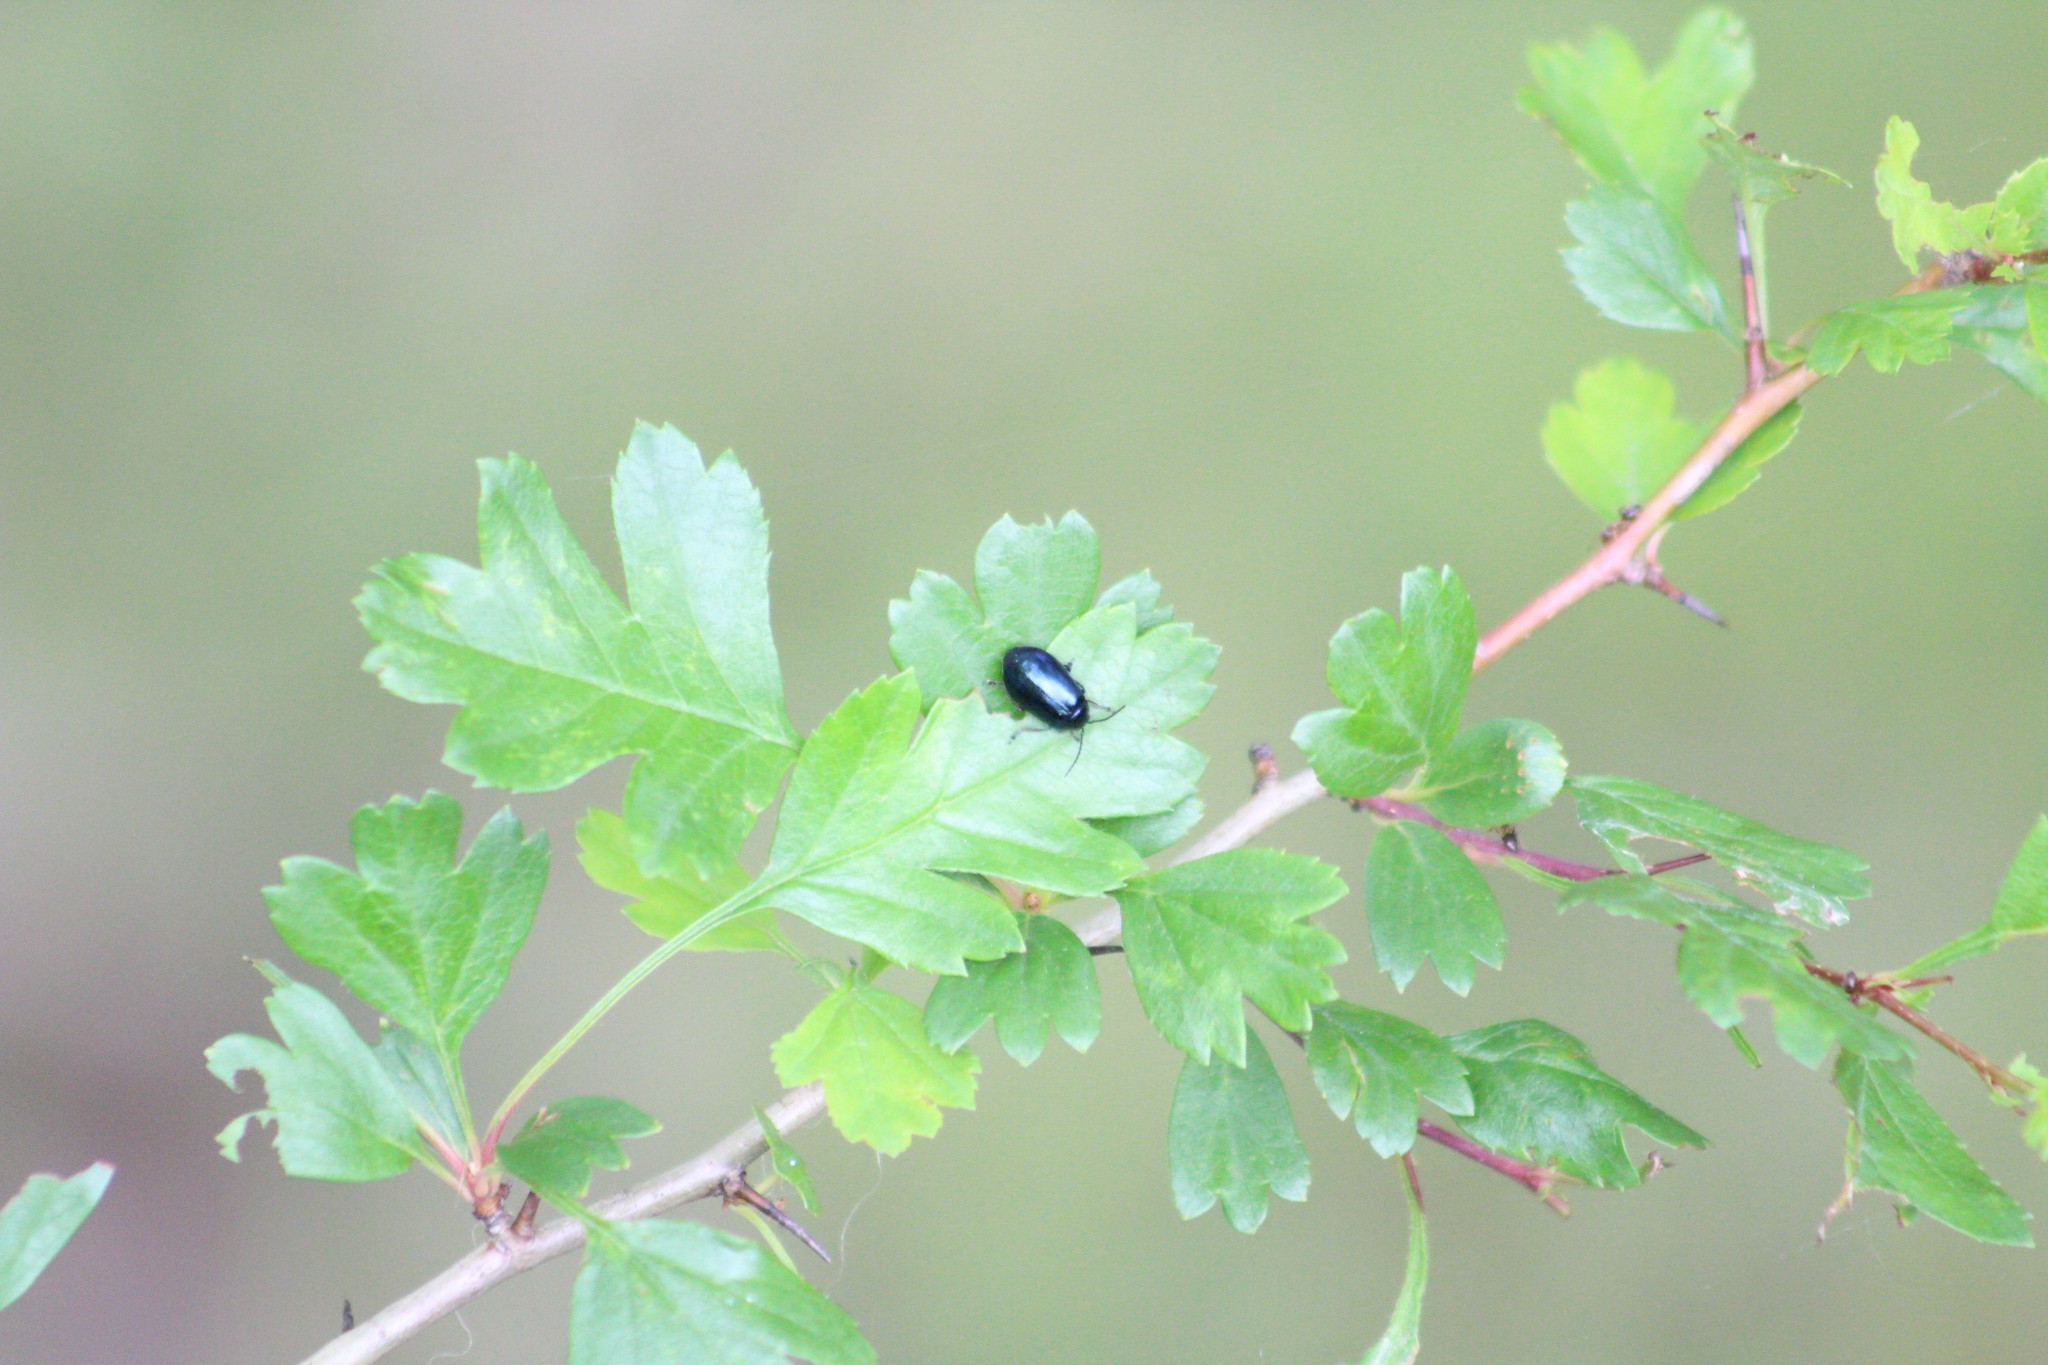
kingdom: Animalia
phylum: Arthropoda
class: Insecta
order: Coleoptera
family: Chrysomelidae
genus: Agelastica
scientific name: Agelastica alni
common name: Alder leaf beetle
